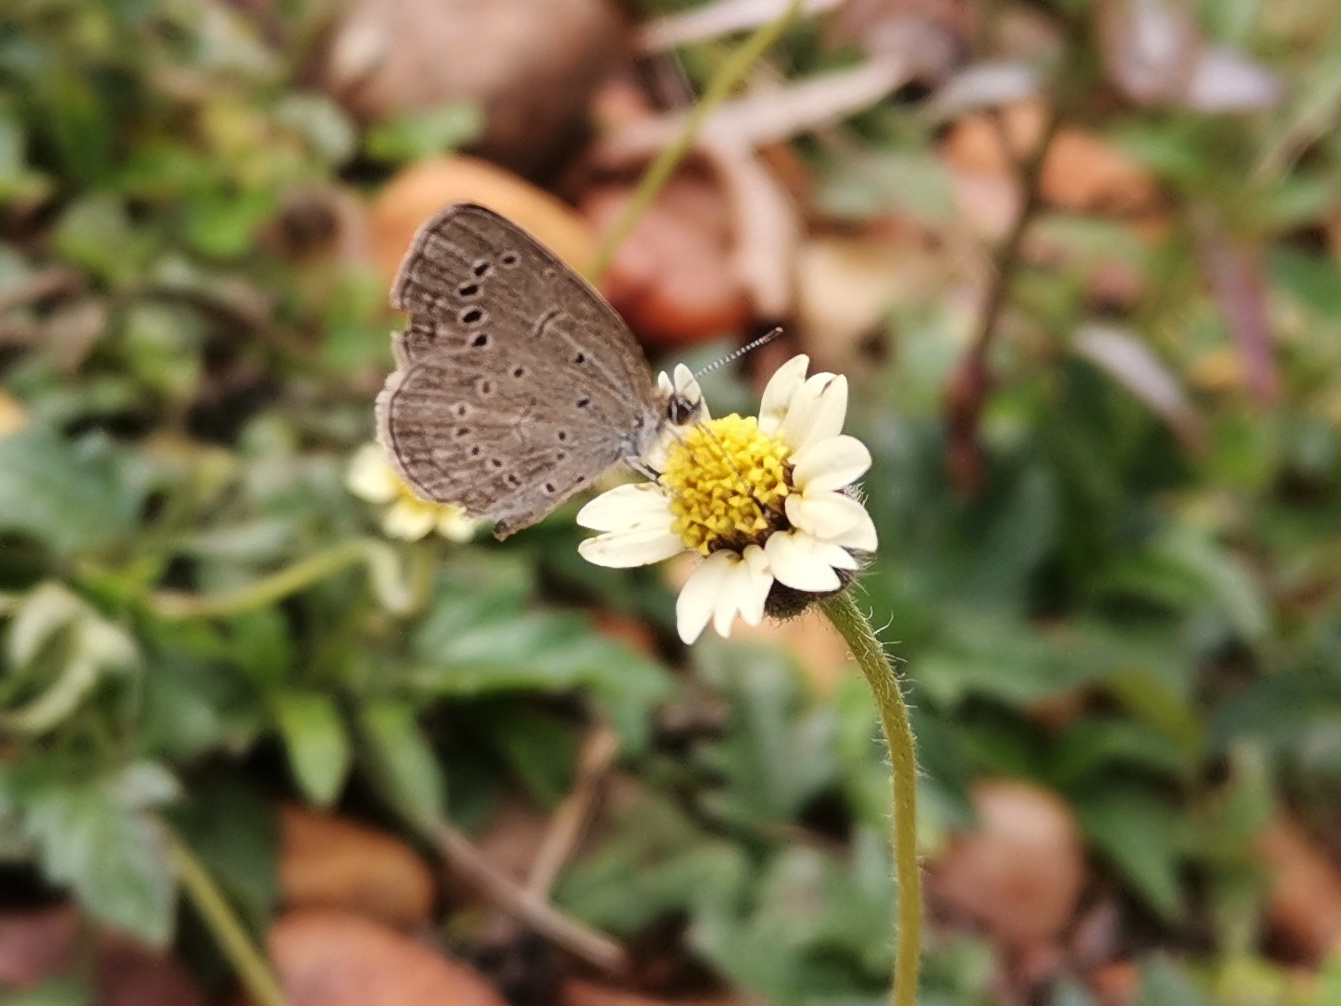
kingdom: Animalia
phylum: Arthropoda
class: Insecta
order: Lepidoptera
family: Lycaenidae
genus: Pseudozizeeria
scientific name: Pseudozizeeria maha
